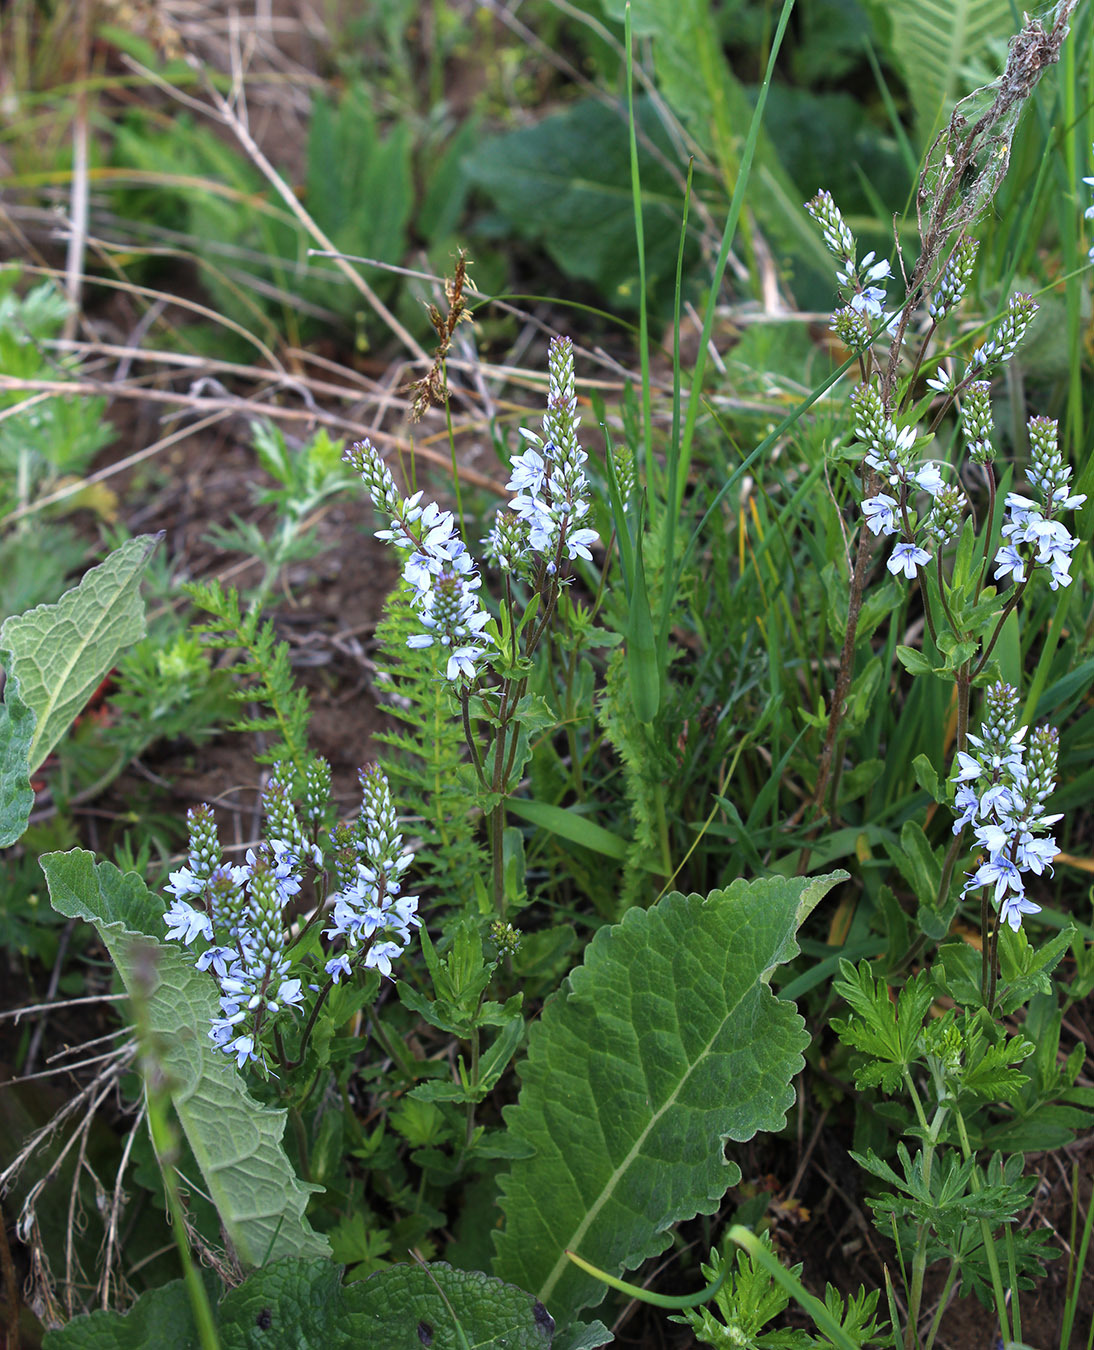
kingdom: Plantae
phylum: Tracheophyta
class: Magnoliopsida
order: Lamiales
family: Plantaginaceae
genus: Veronica
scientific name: Veronica prostrata
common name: Prostrate speedwell
